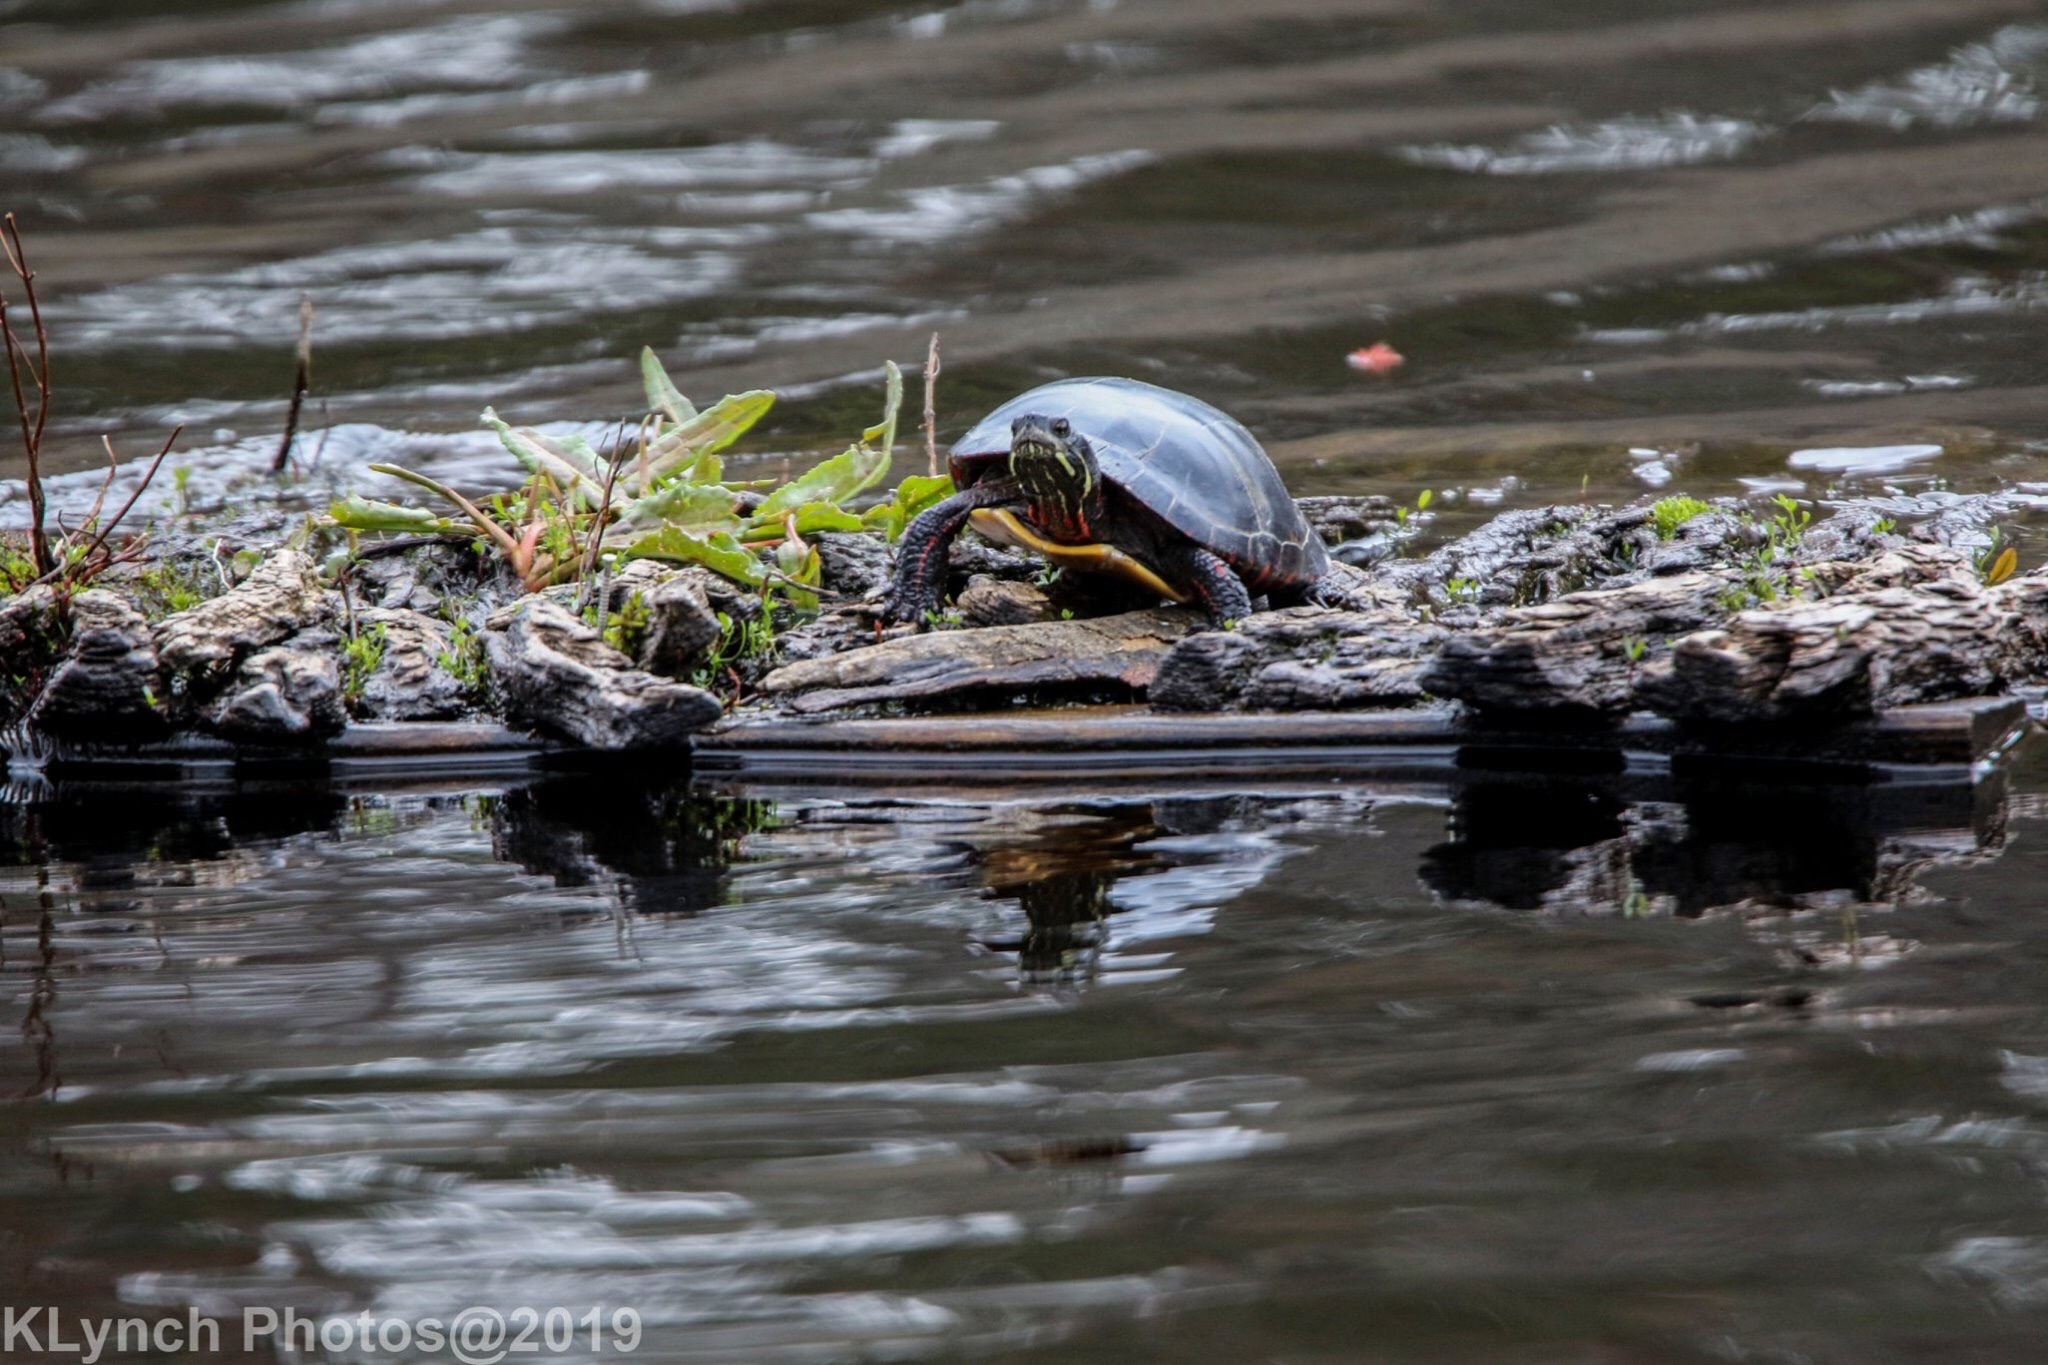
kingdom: Animalia
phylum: Chordata
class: Testudines
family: Emydidae
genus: Chrysemys
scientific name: Chrysemys picta
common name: Painted turtle
